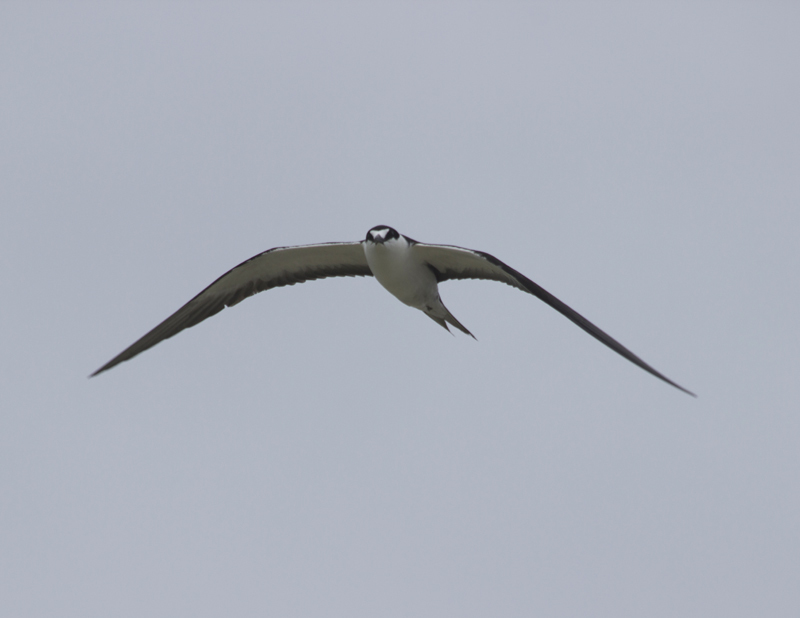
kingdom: Animalia
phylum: Chordata
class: Aves
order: Charadriiformes
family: Laridae
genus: Onychoprion
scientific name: Onychoprion fuscatus
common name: Sooty tern
